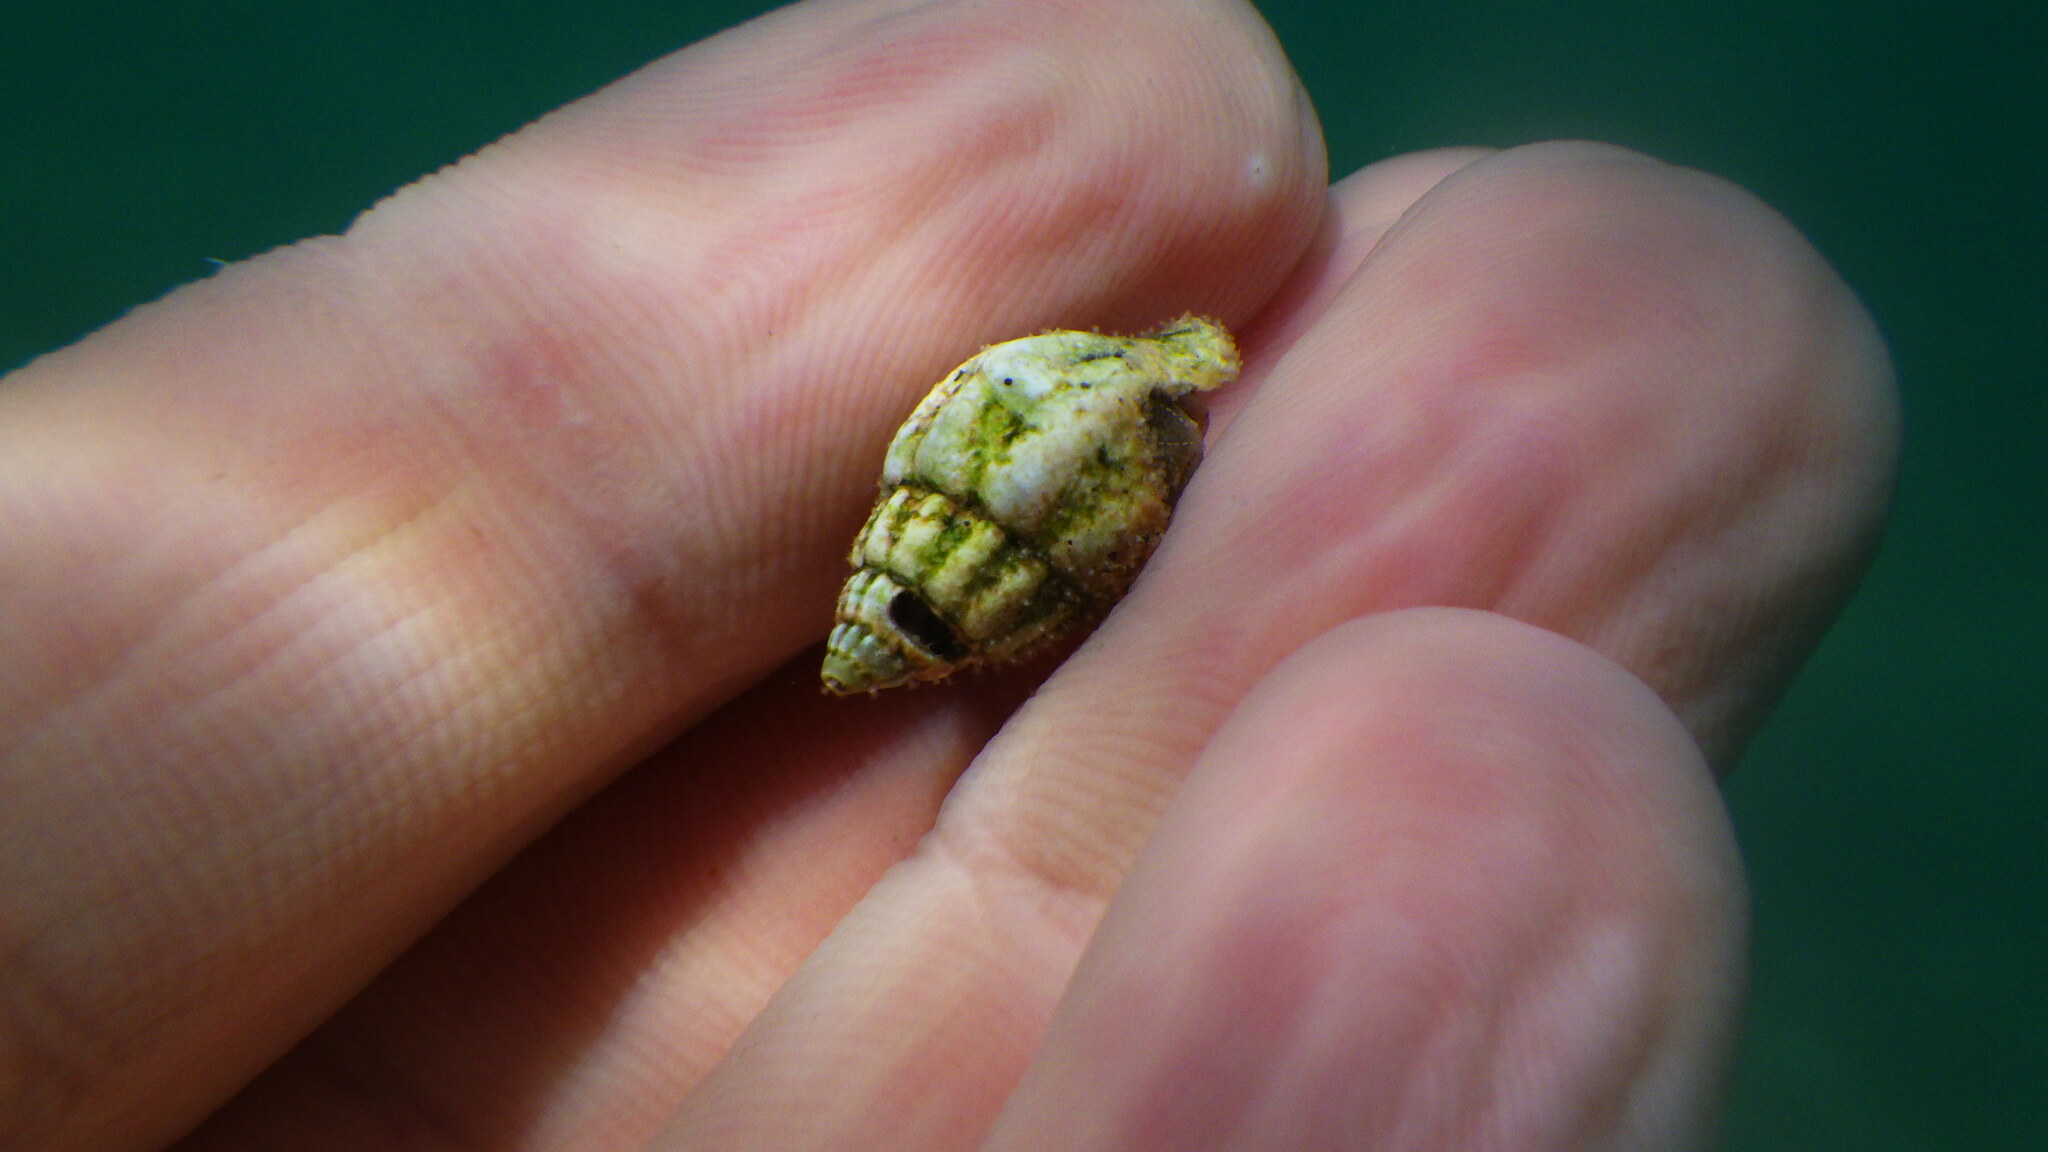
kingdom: Animalia
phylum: Mollusca
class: Gastropoda
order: Neogastropoda
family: Nassariidae
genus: Tritia
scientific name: Tritia nitida
